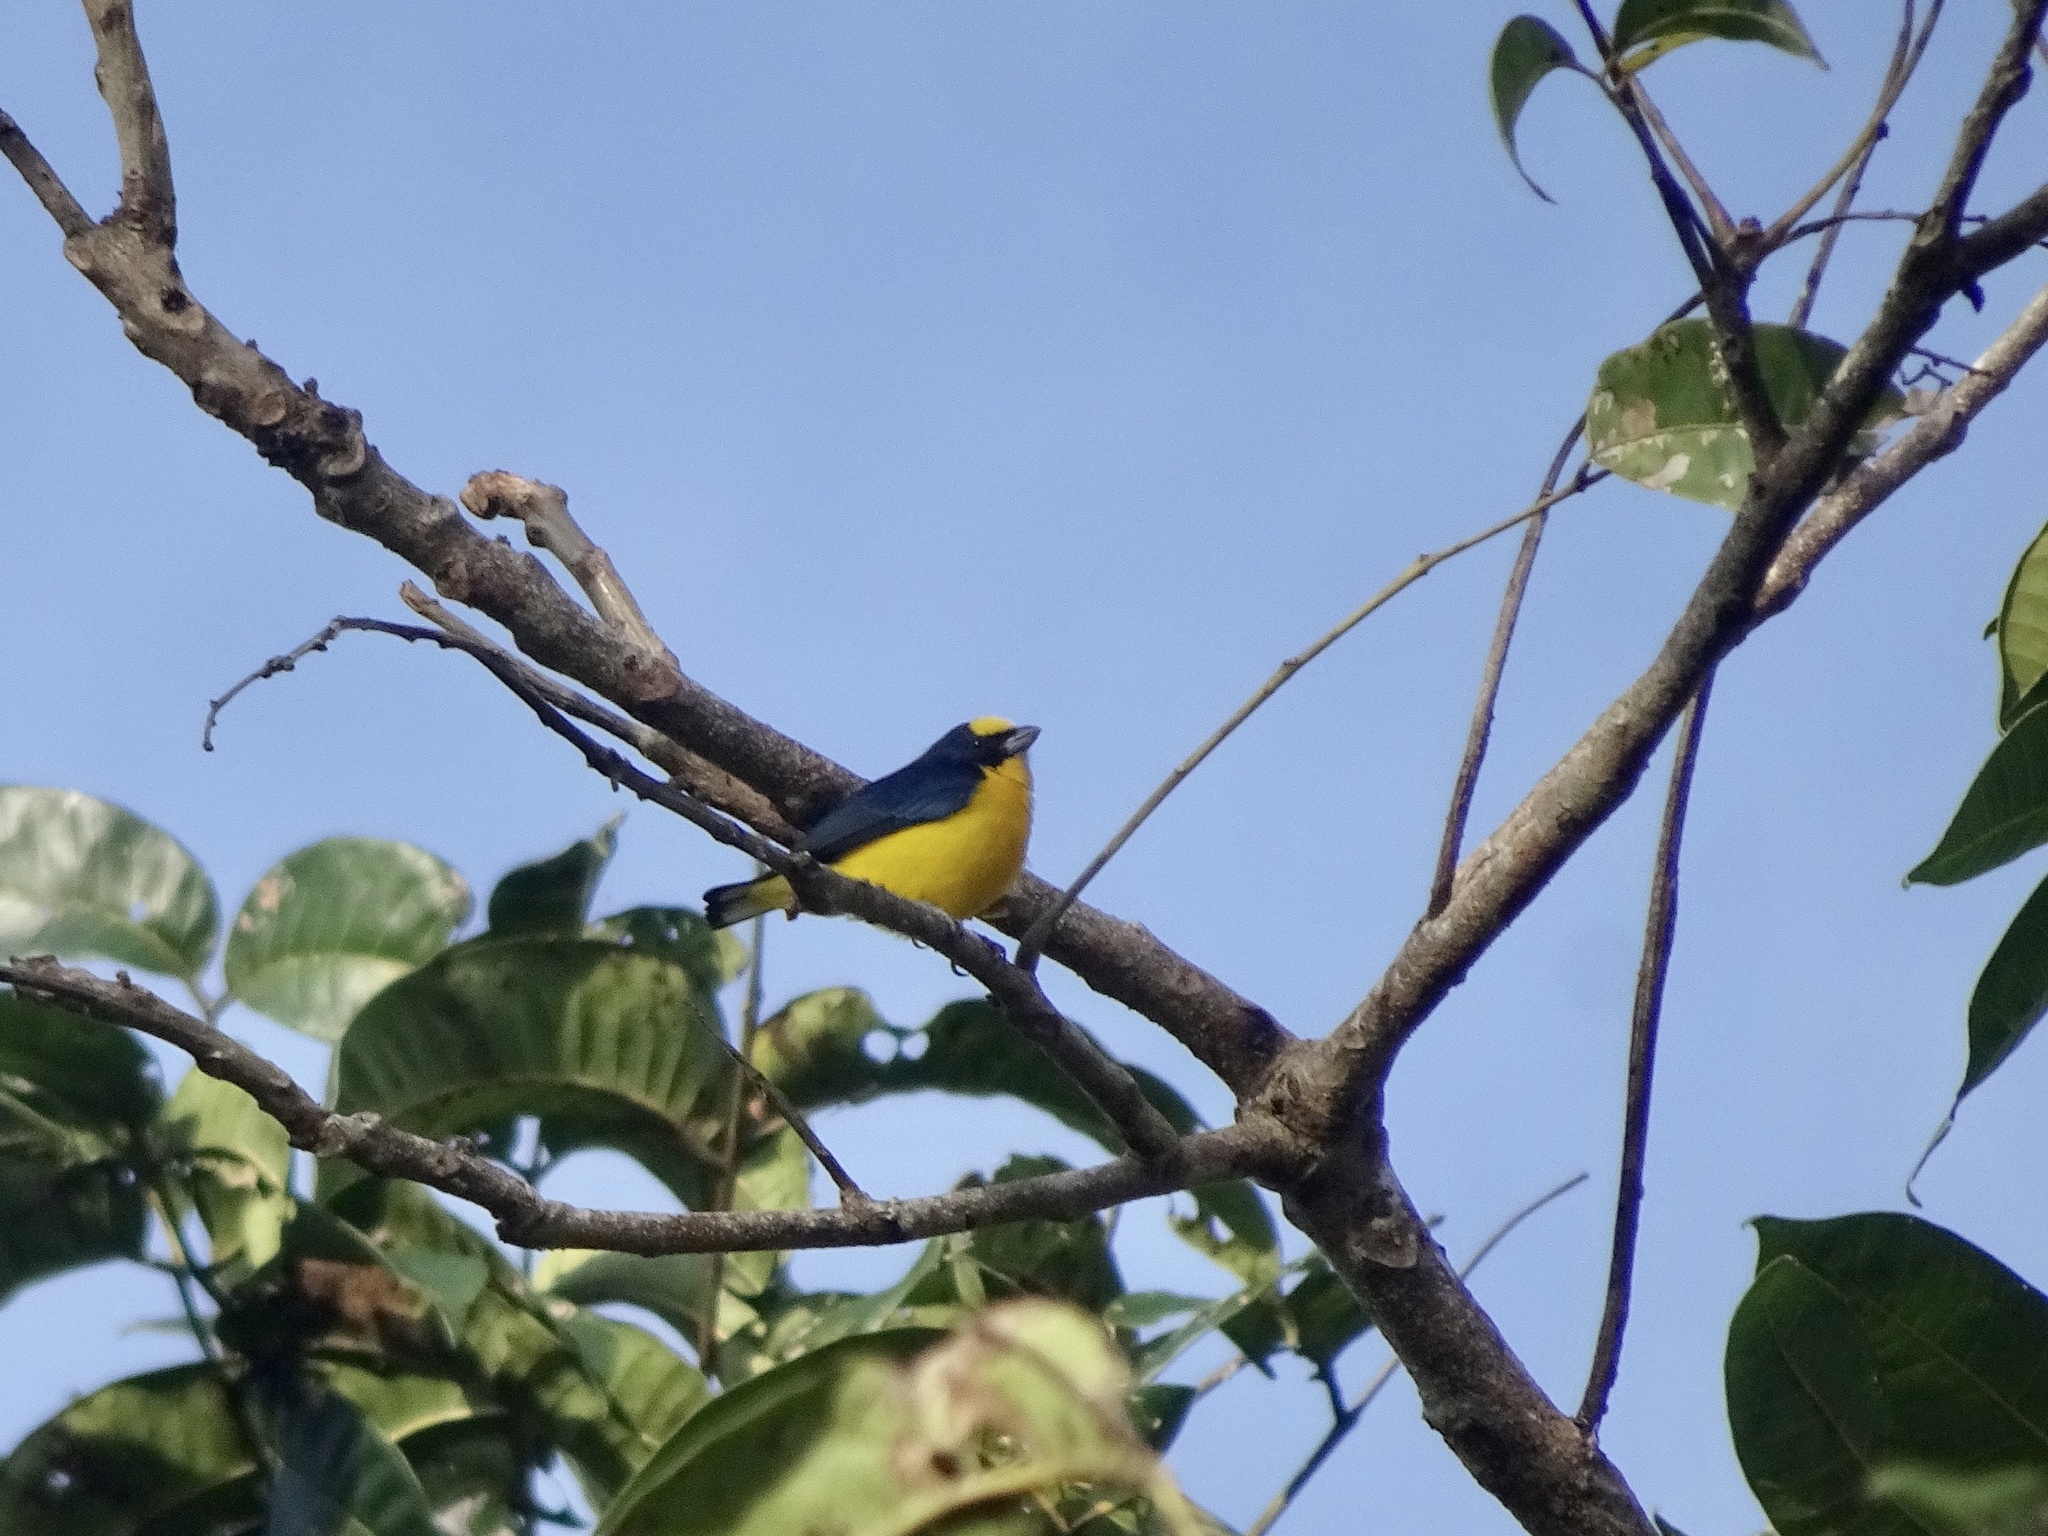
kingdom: Animalia
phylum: Chordata
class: Aves
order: Passeriformes
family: Fringillidae
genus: Euphonia
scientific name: Euphonia laniirostris
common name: Thick-billed euphonia
